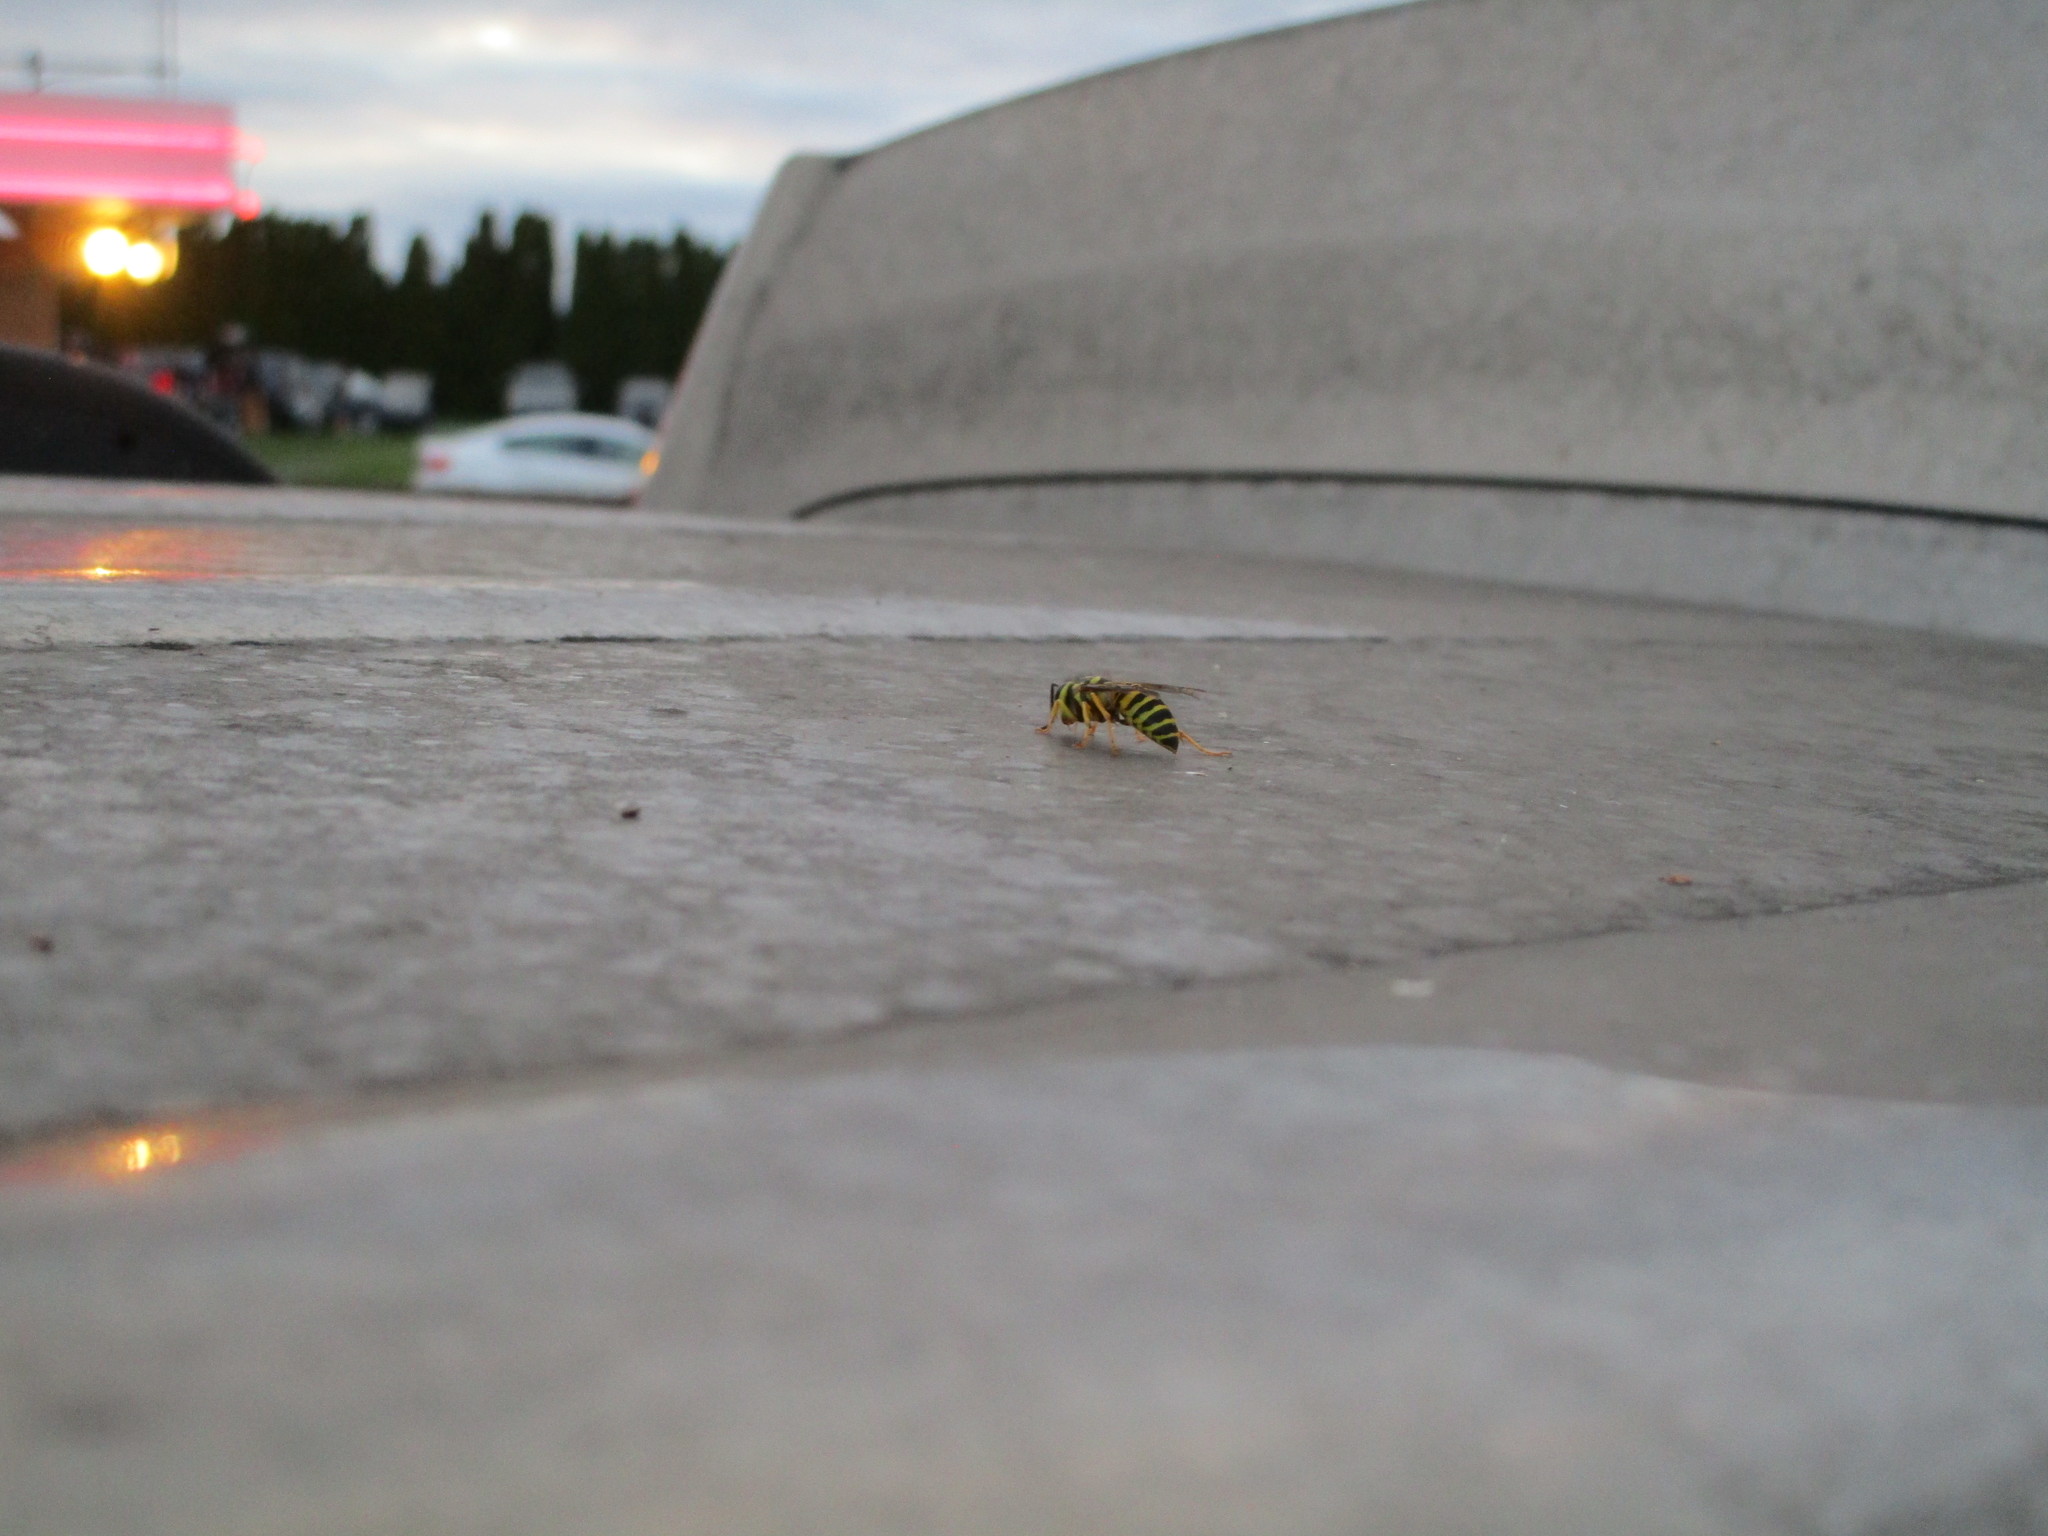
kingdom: Animalia
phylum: Arthropoda
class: Insecta
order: Hymenoptera
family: Vespidae
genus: Vespula
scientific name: Vespula squamosa
